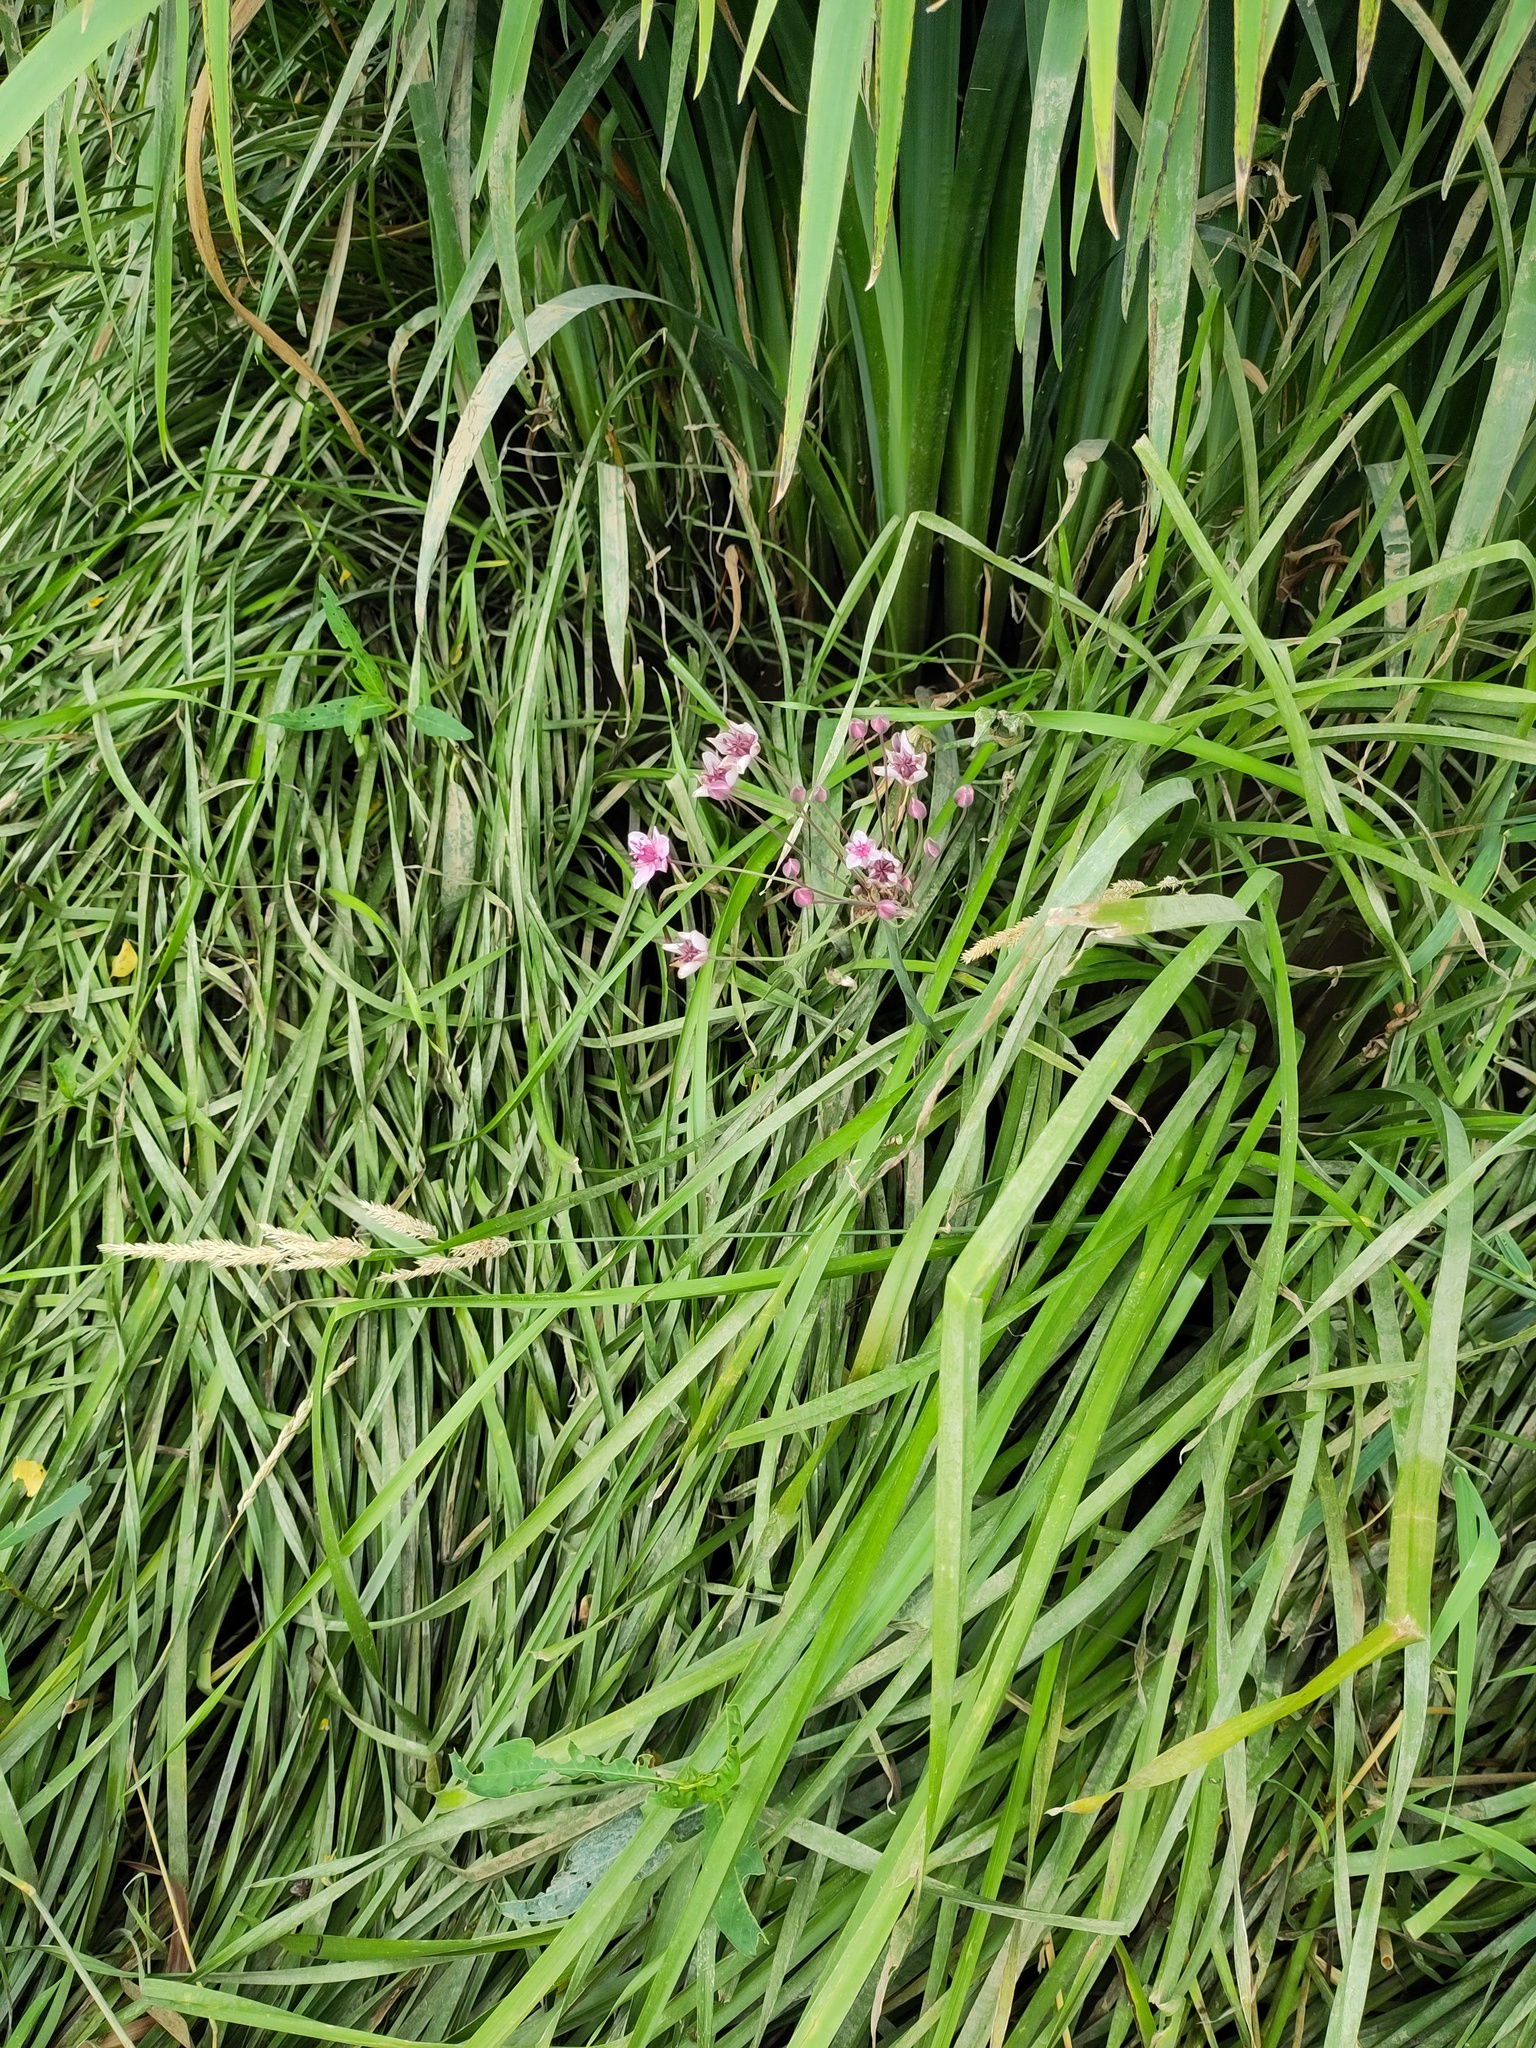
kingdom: Plantae
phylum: Tracheophyta
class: Liliopsida
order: Alismatales
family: Butomaceae
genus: Butomus
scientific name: Butomus umbellatus
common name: Flowering-rush
